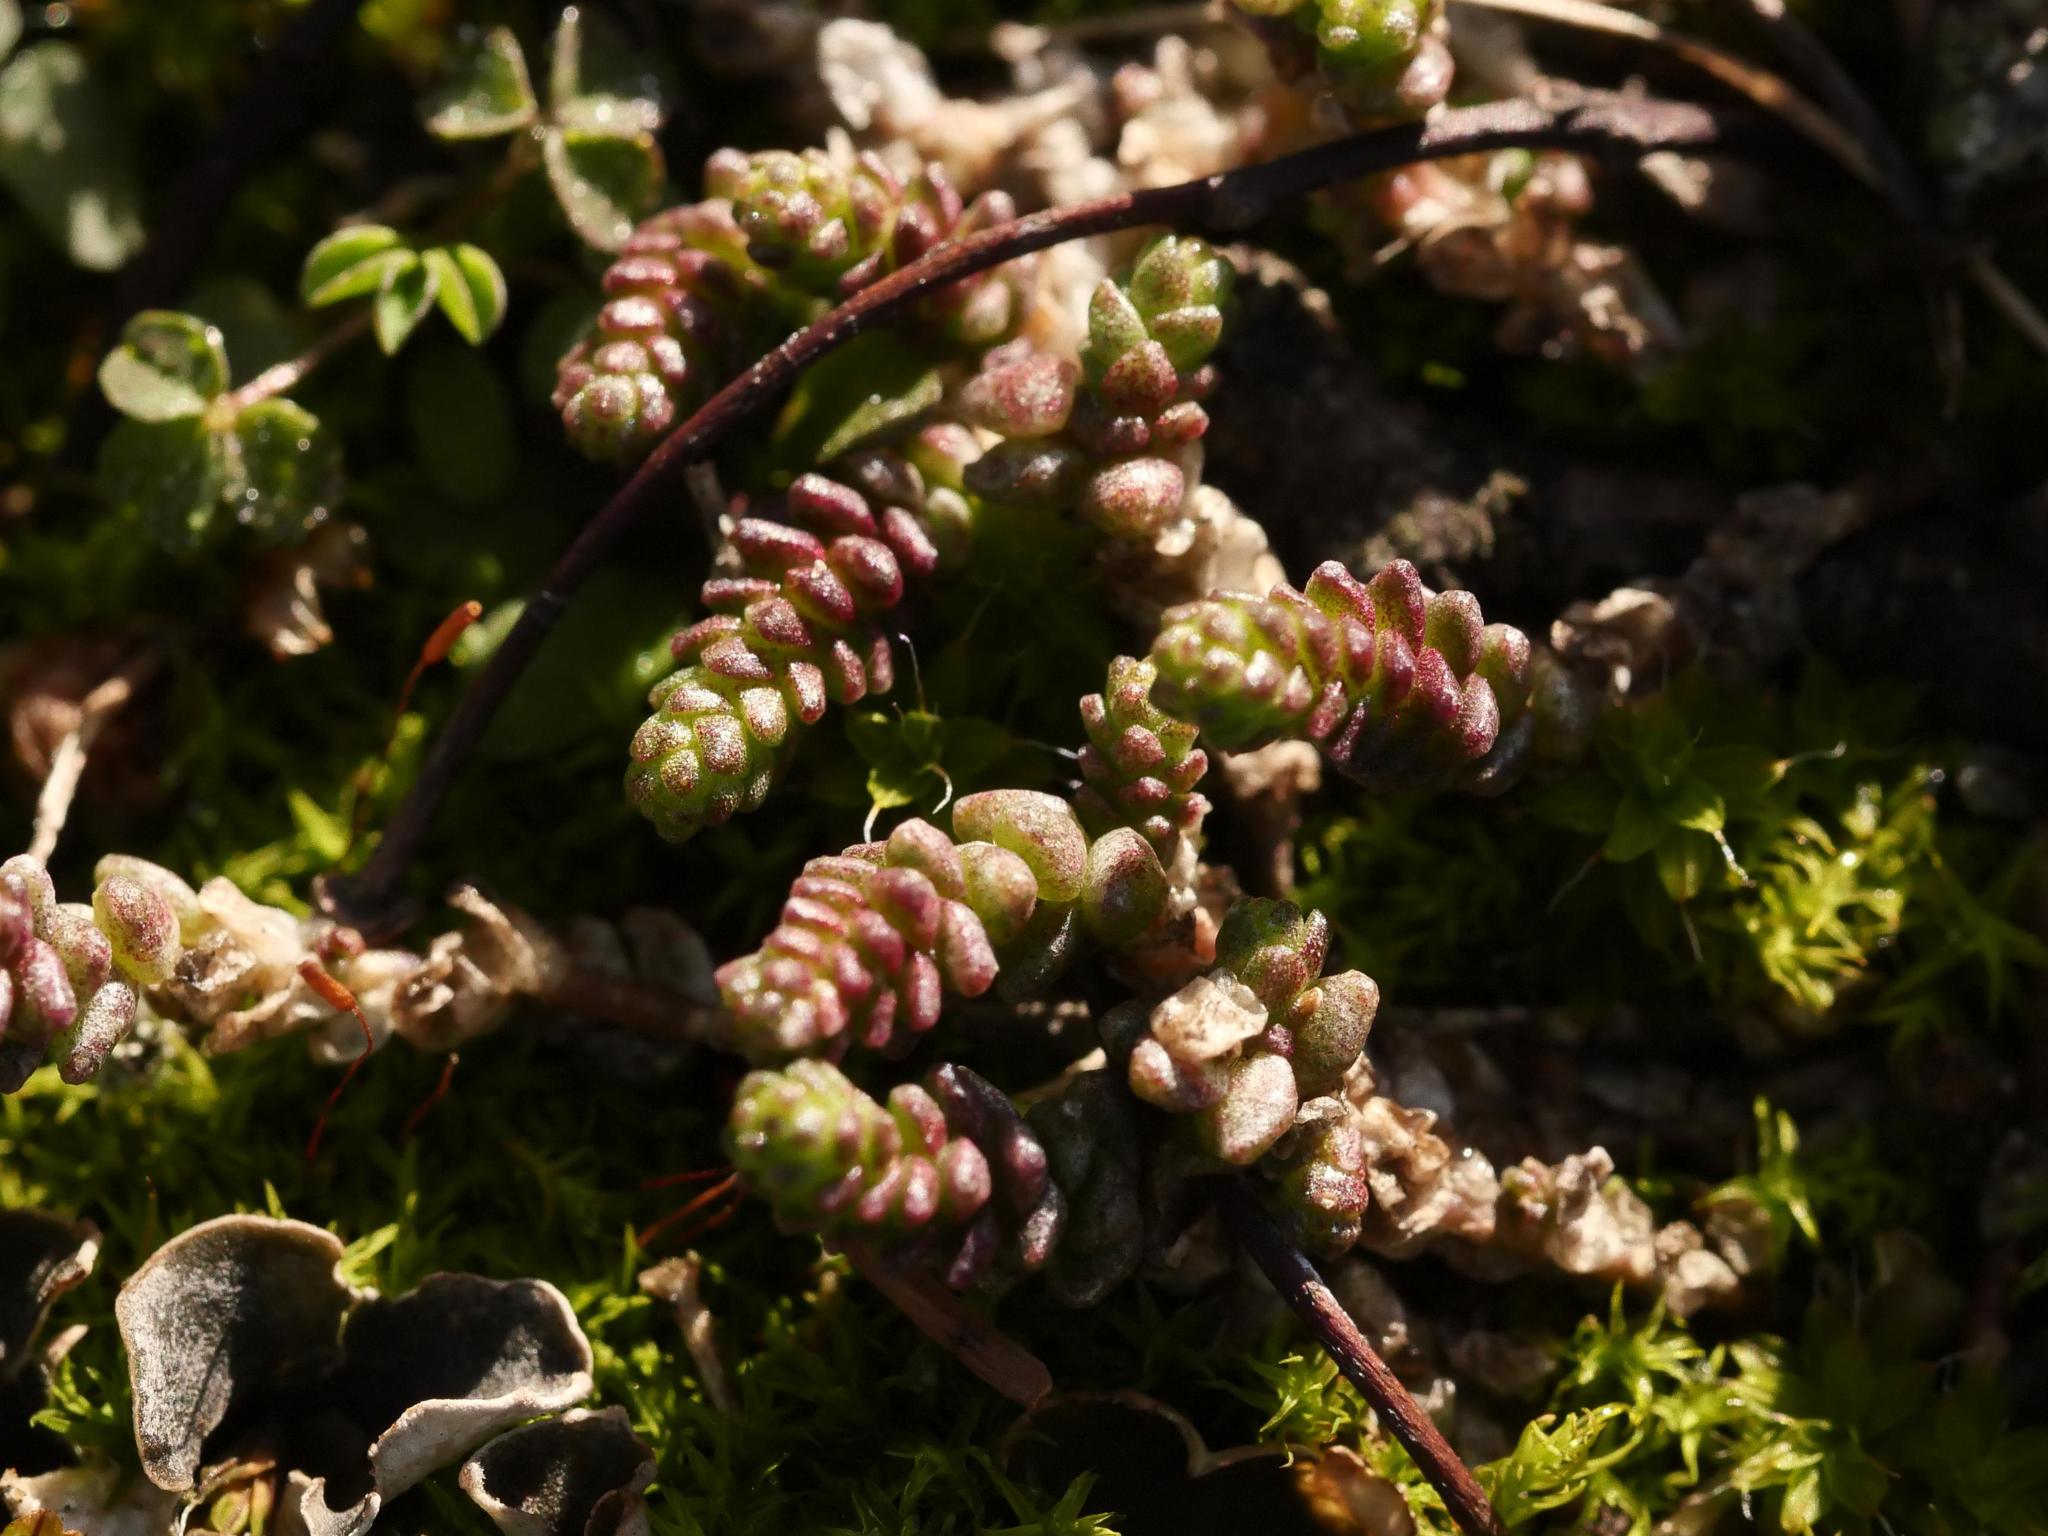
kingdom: Plantae
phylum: Tracheophyta
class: Magnoliopsida
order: Saxifragales
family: Crassulaceae
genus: Sedum
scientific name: Sedum acre
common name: Biting stonecrop
